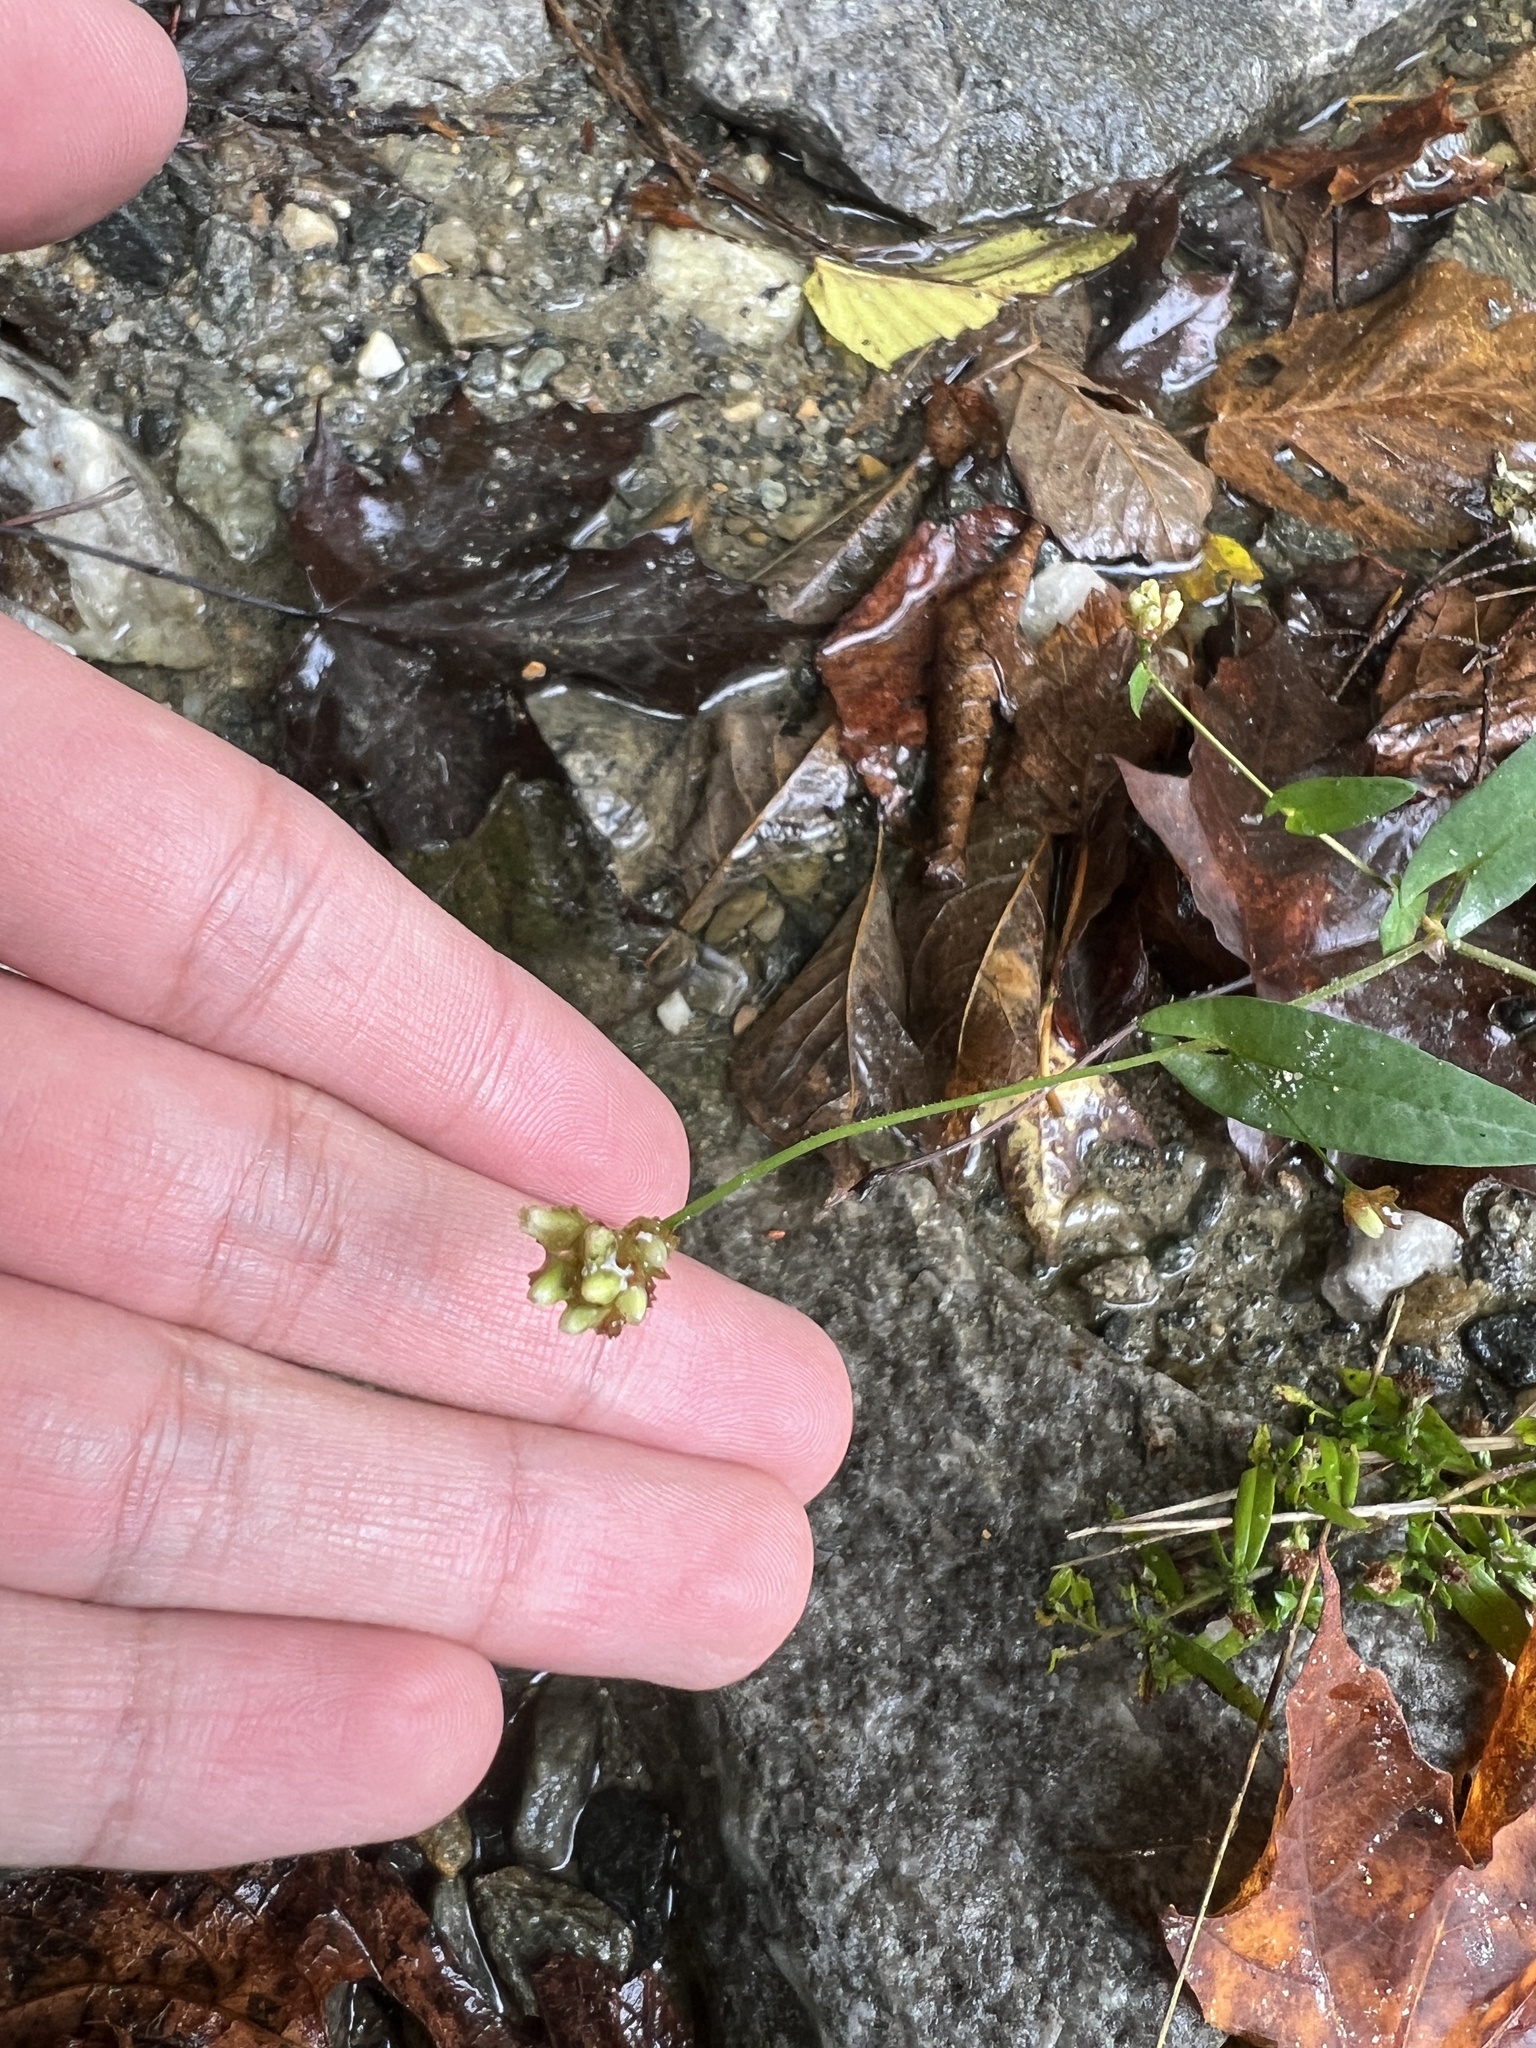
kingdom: Plantae
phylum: Tracheophyta
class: Magnoliopsida
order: Caryophyllales
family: Polygonaceae
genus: Persicaria
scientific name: Persicaria sagittata
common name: American tearthumb
